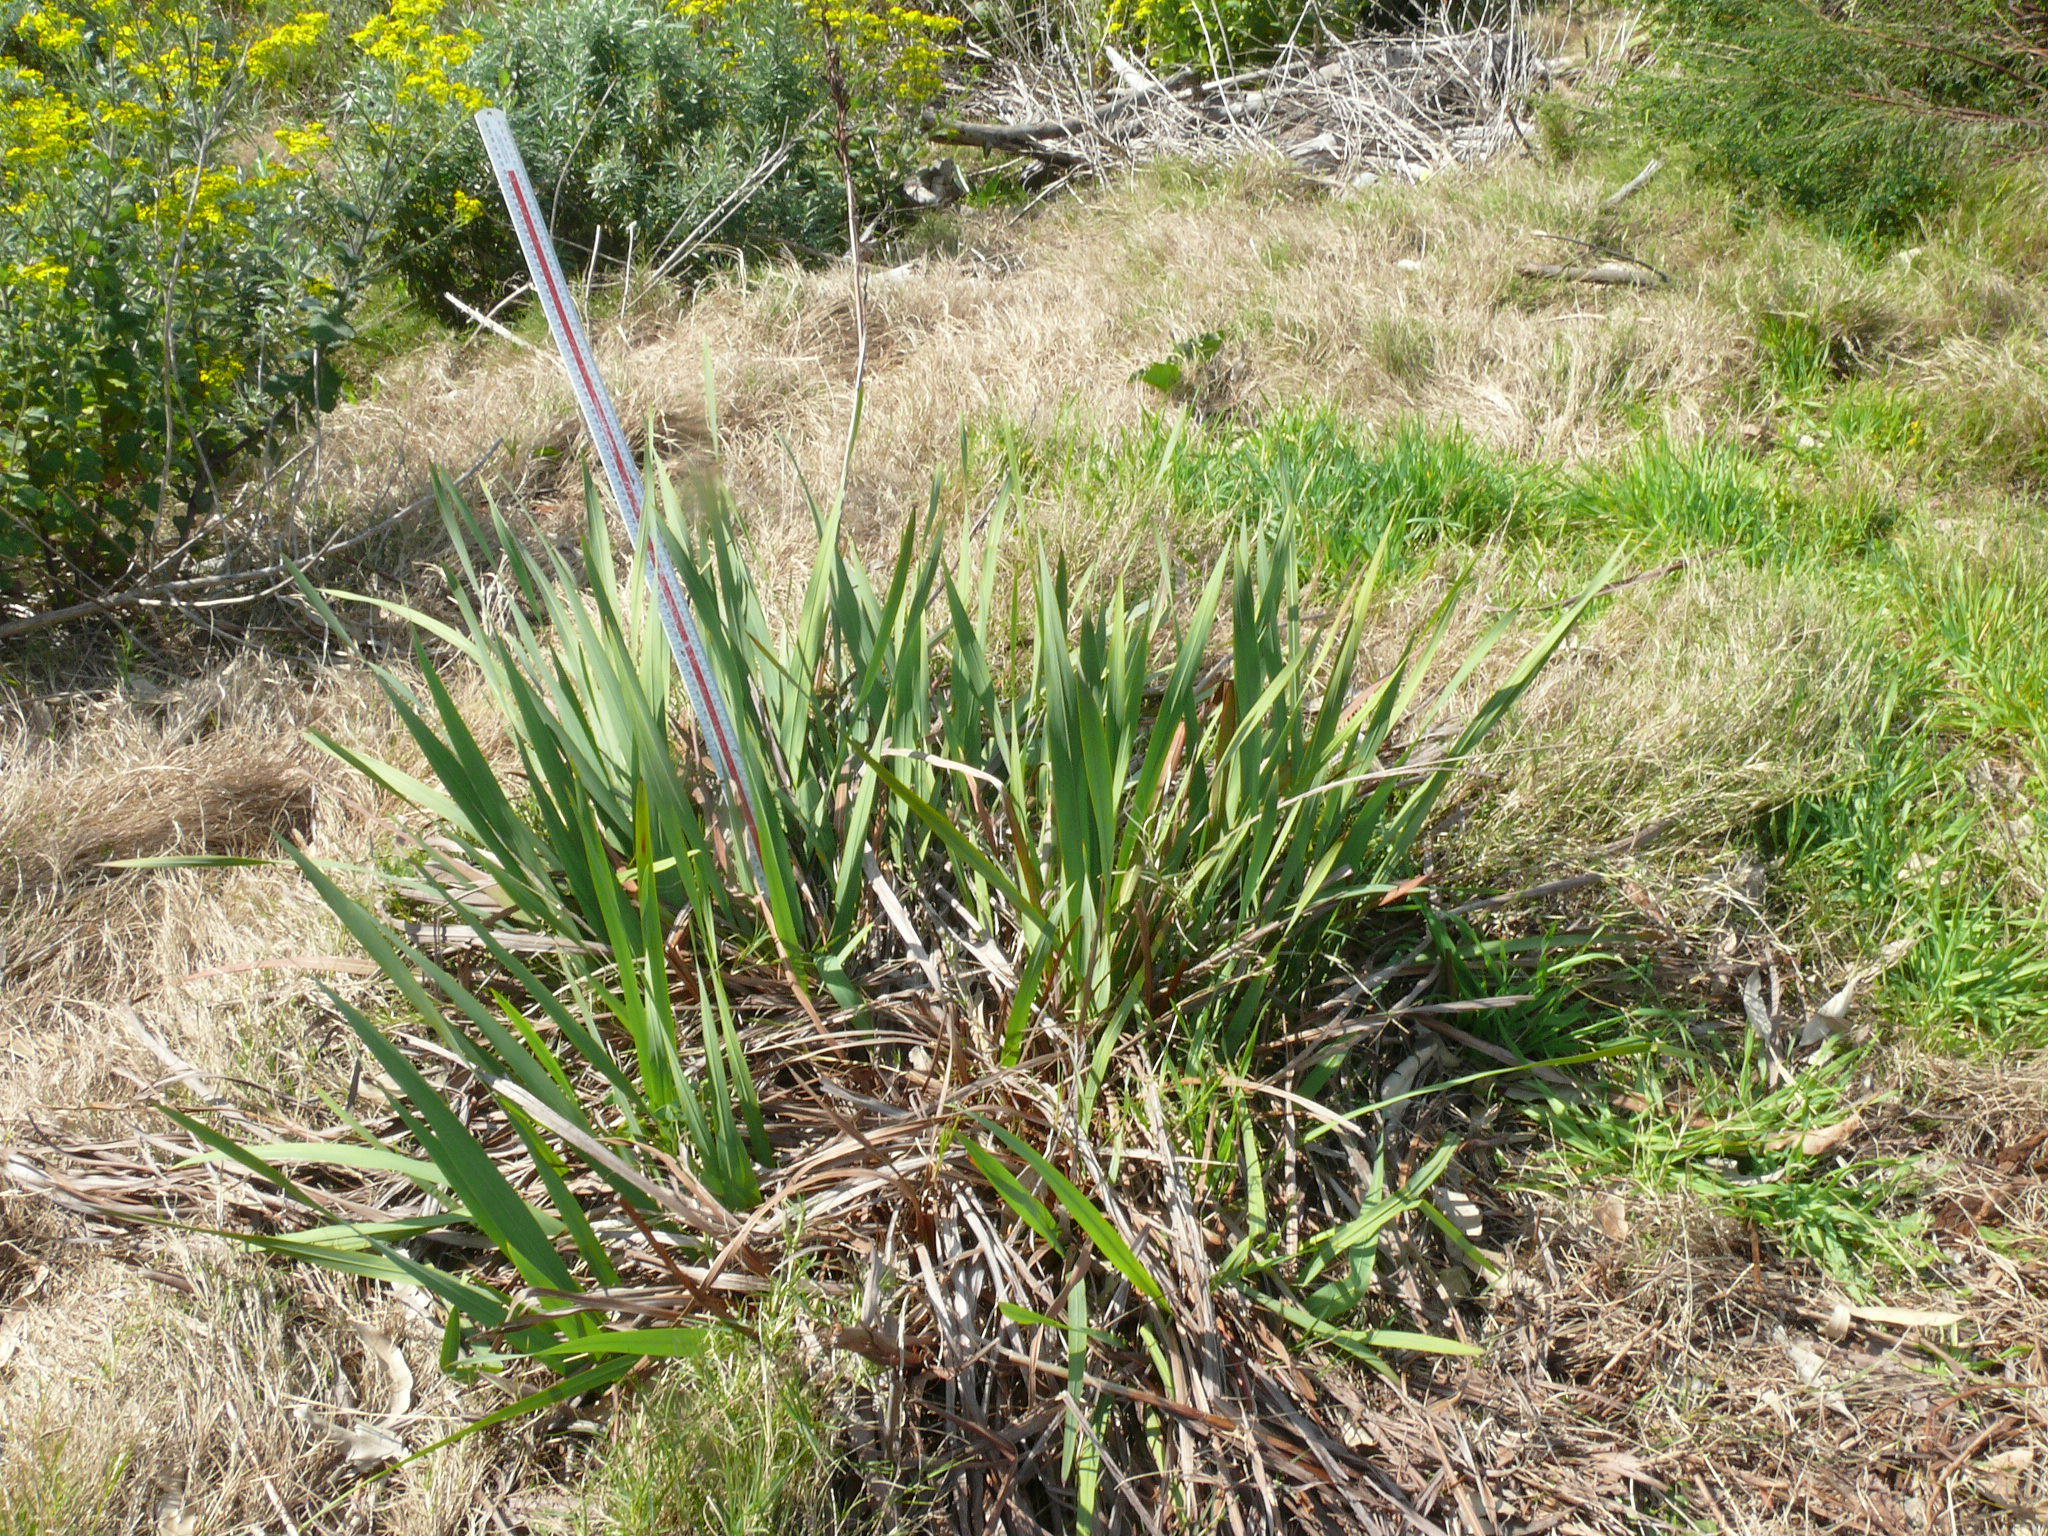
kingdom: Plantae
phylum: Tracheophyta
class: Liliopsida
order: Asparagales
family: Iridaceae
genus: Watsonia
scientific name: Watsonia angusta
